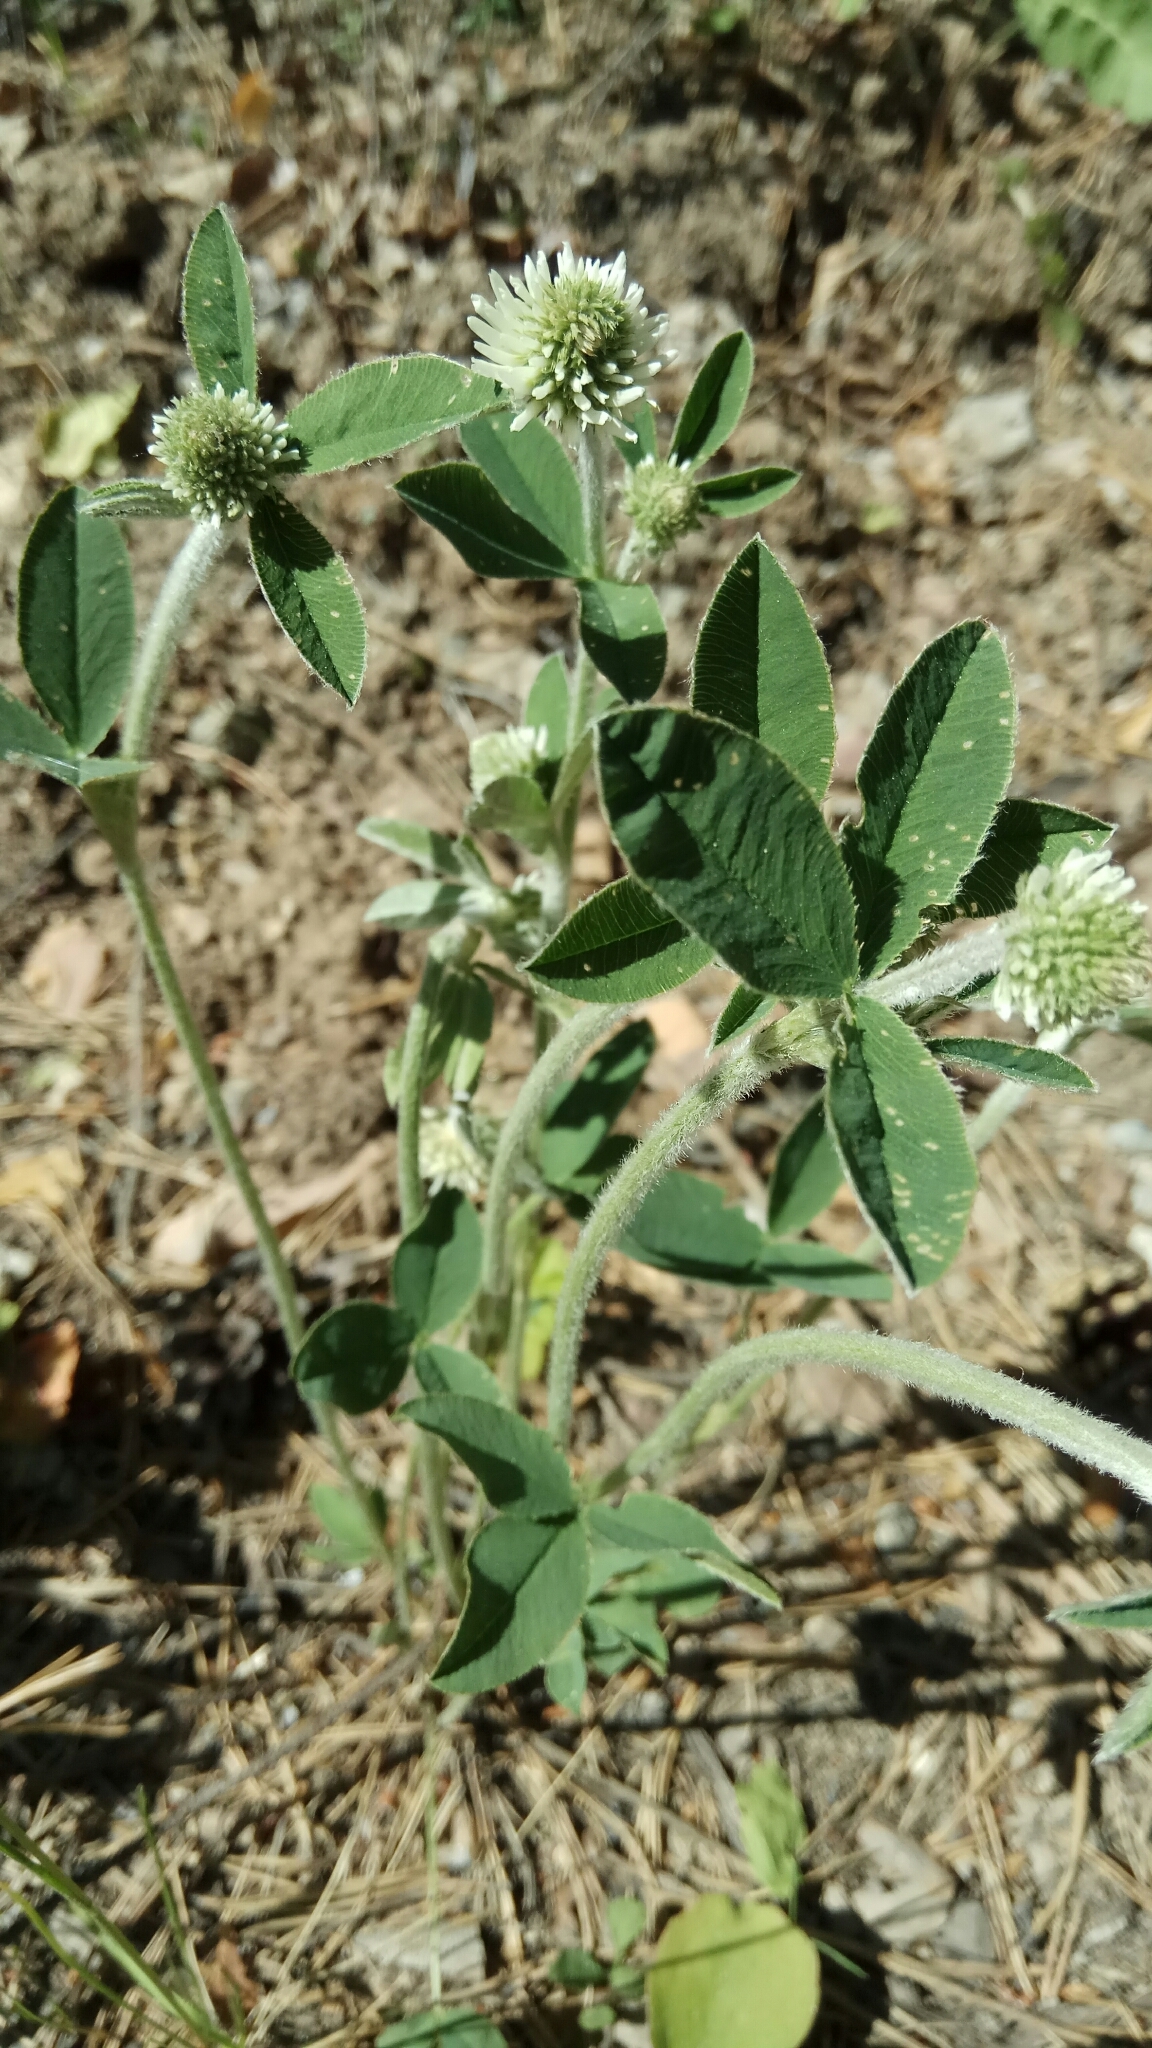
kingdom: Plantae
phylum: Tracheophyta
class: Magnoliopsida
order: Fabales
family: Fabaceae
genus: Trifolium
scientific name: Trifolium montanum
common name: Mountain clover
